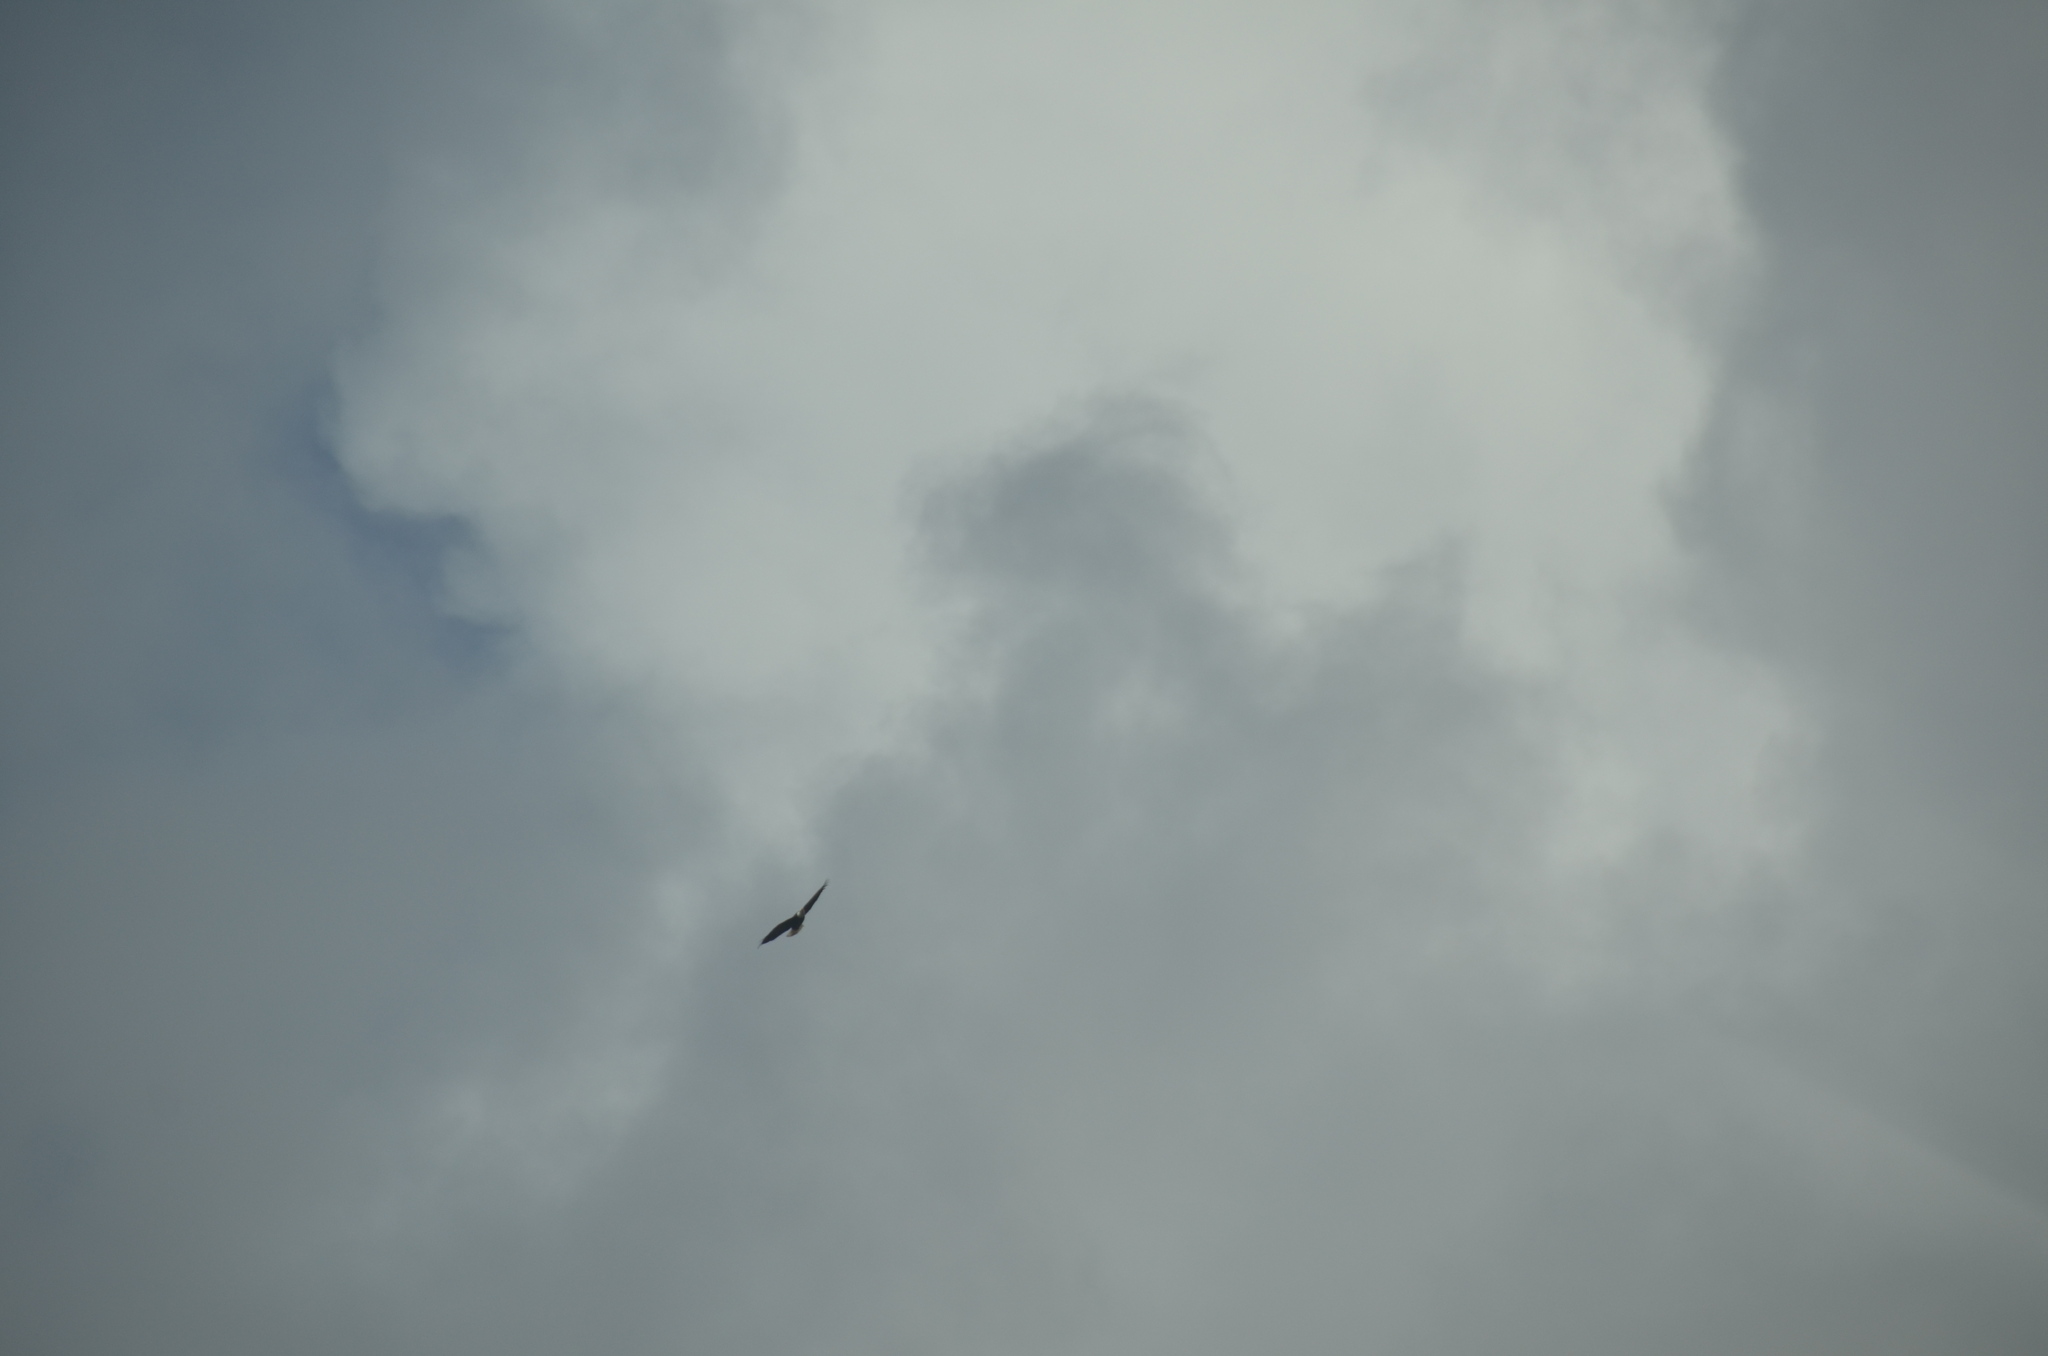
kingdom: Animalia
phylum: Chordata
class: Aves
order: Accipitriformes
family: Accipitridae
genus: Haliaeetus
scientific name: Haliaeetus leucocephalus
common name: Bald eagle
